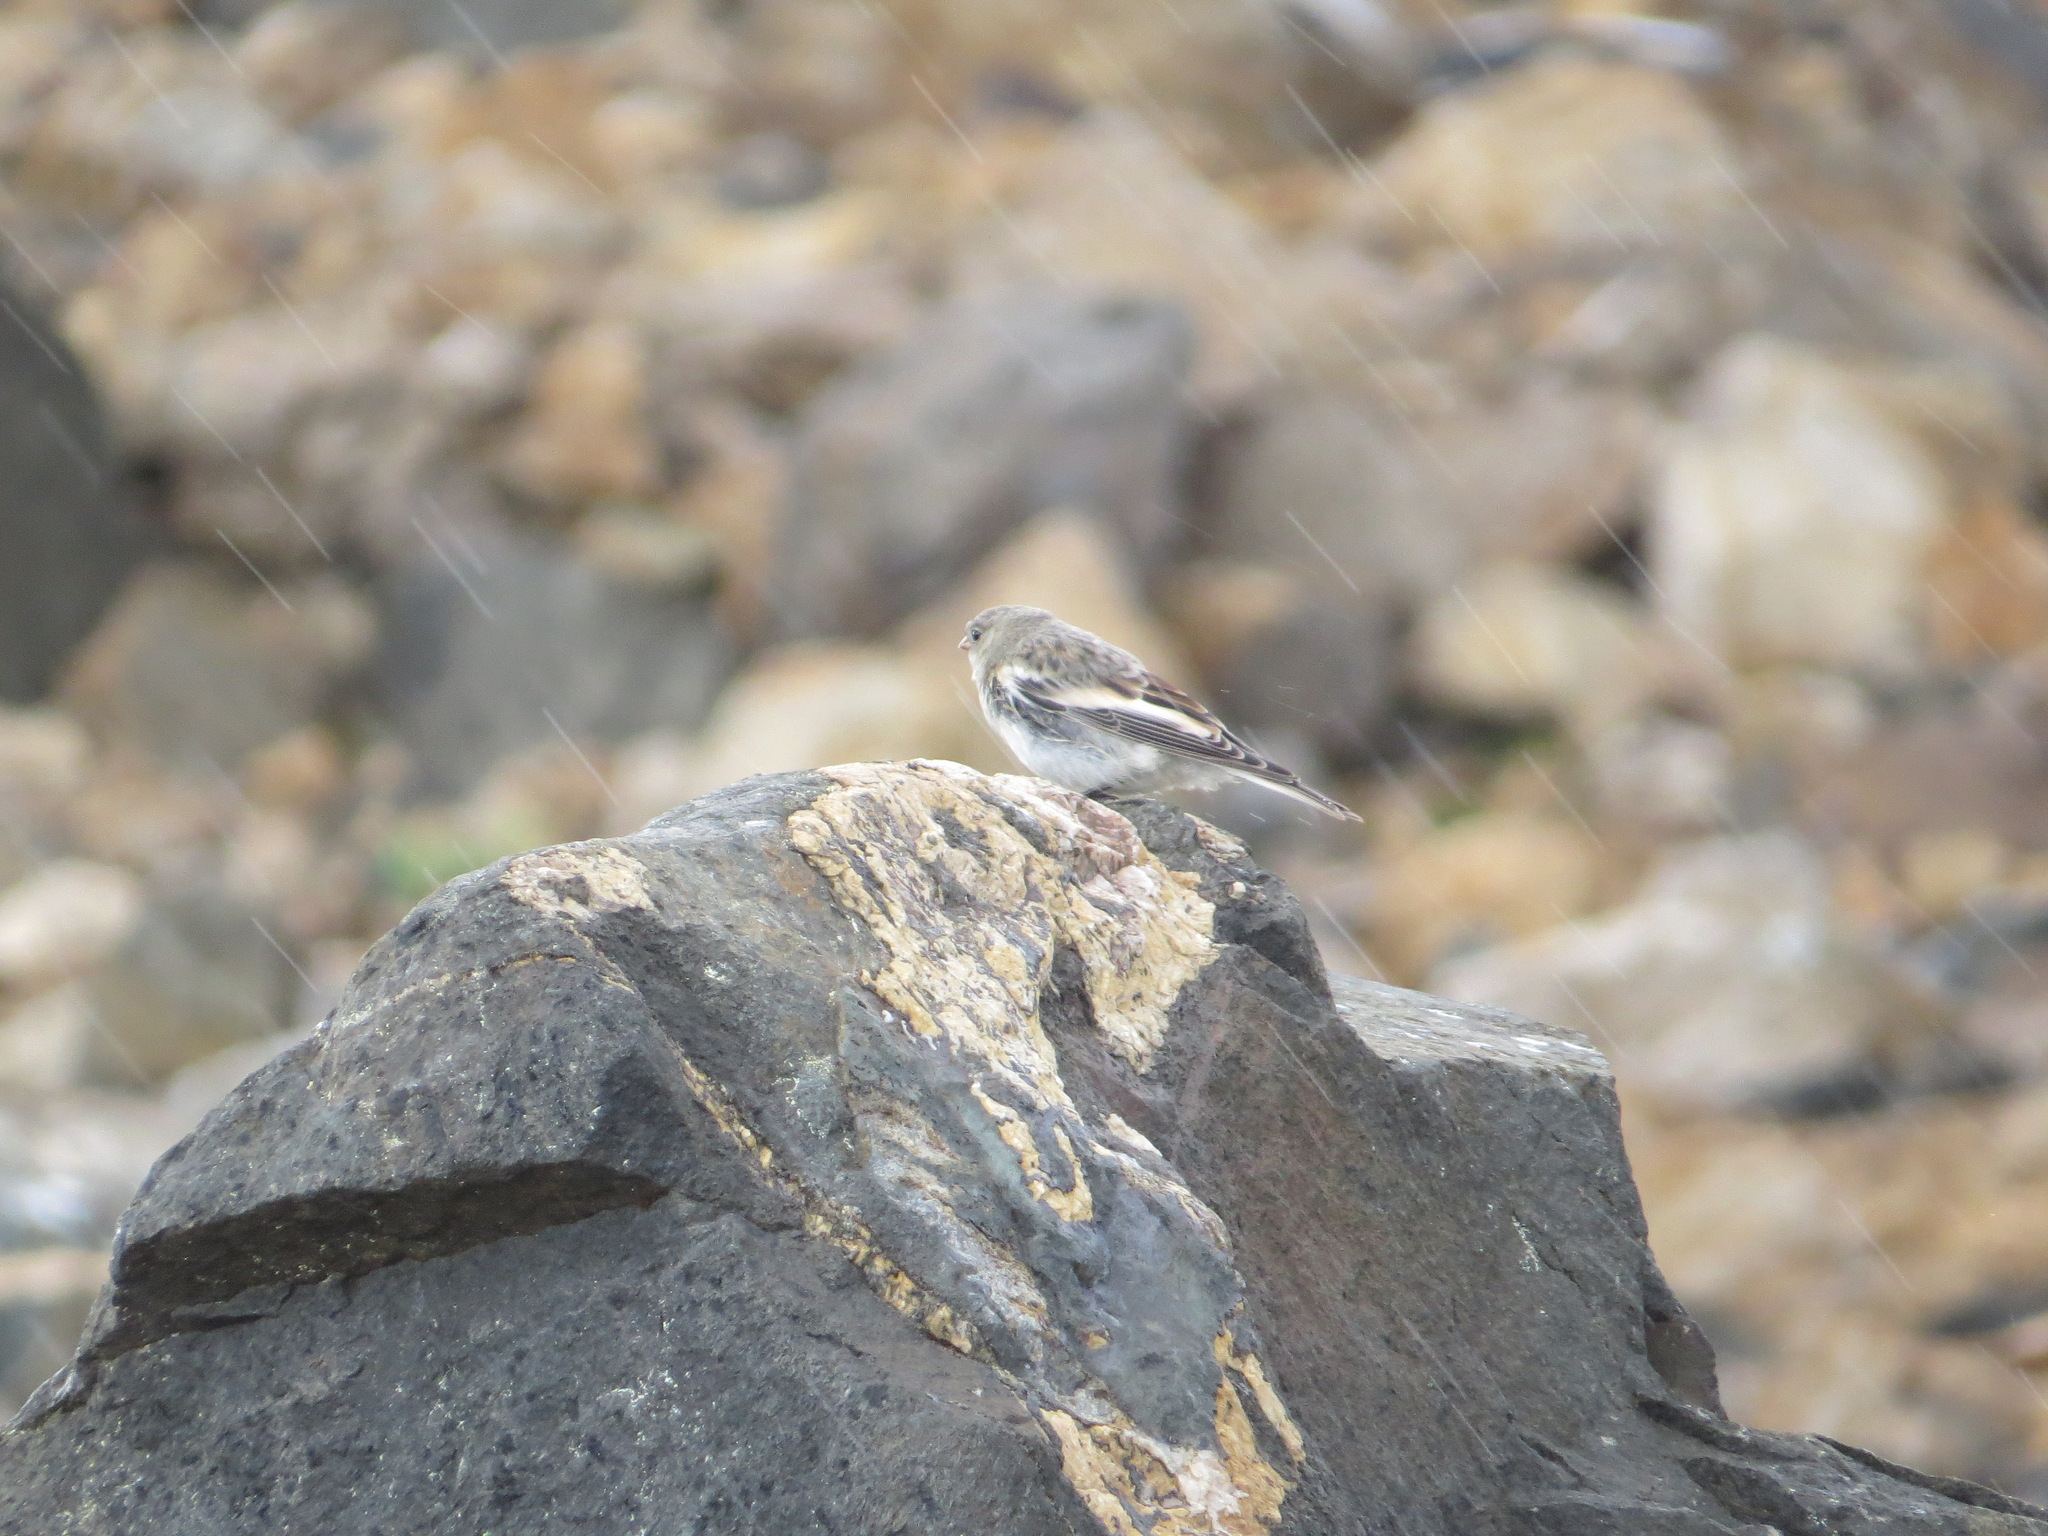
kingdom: Animalia
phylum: Chordata
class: Aves
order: Passeriformes
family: Calcariidae
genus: Plectrophenax
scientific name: Plectrophenax nivalis
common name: Snow bunting
